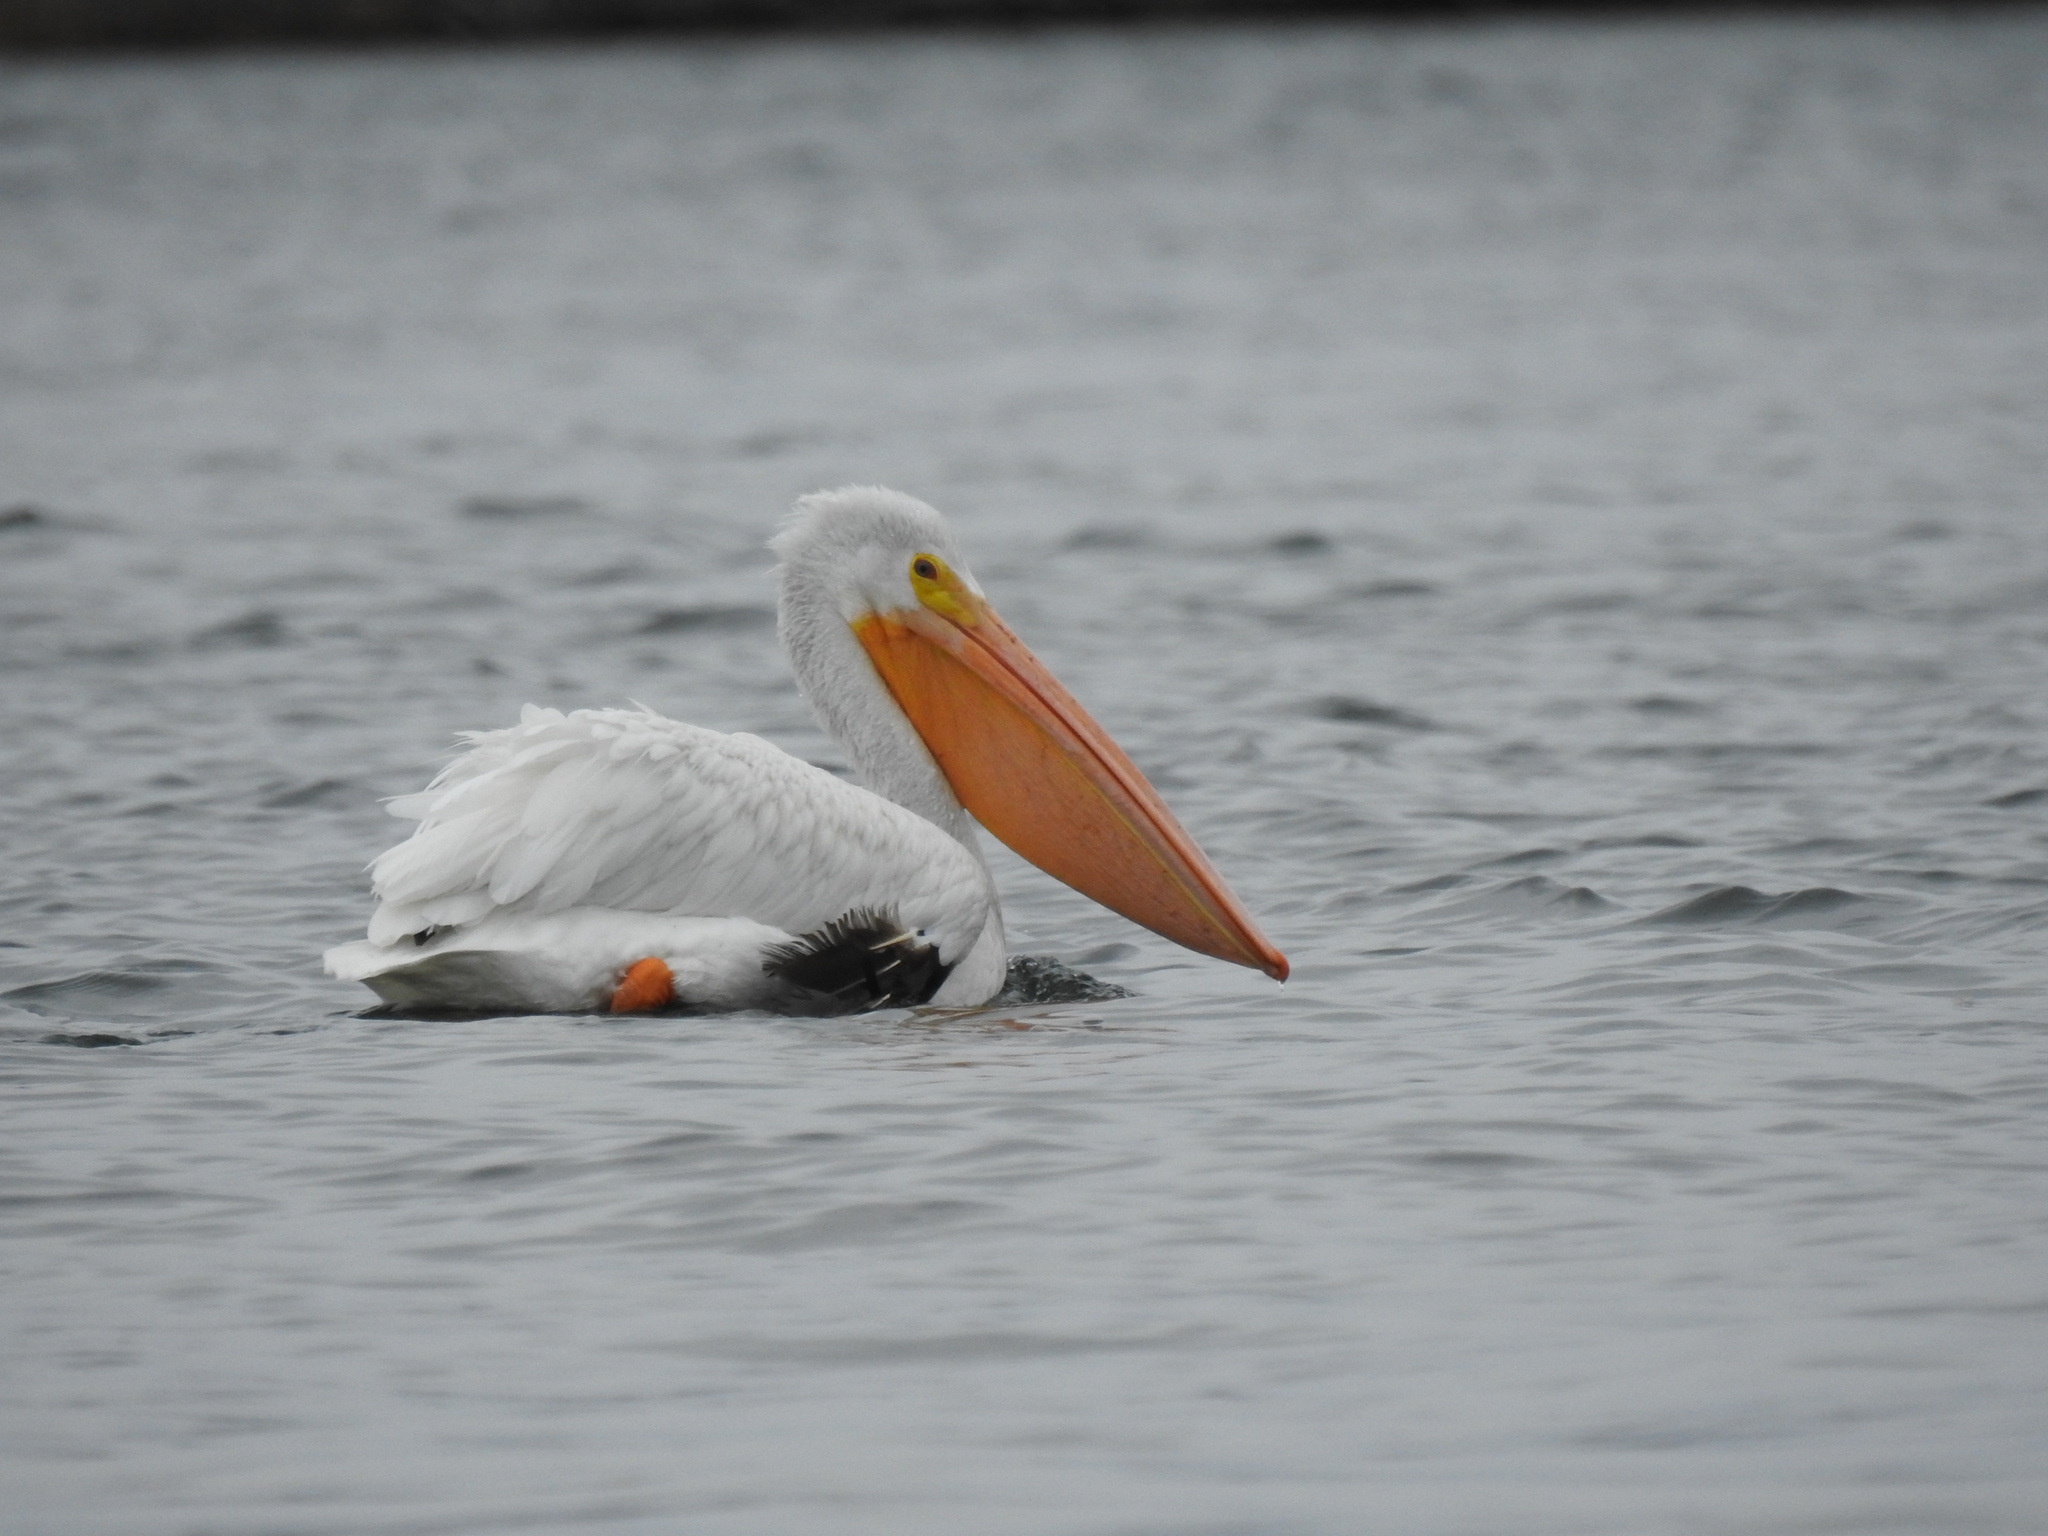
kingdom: Animalia
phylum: Chordata
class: Aves
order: Pelecaniformes
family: Pelecanidae
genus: Pelecanus
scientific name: Pelecanus erythrorhynchos
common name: American white pelican
